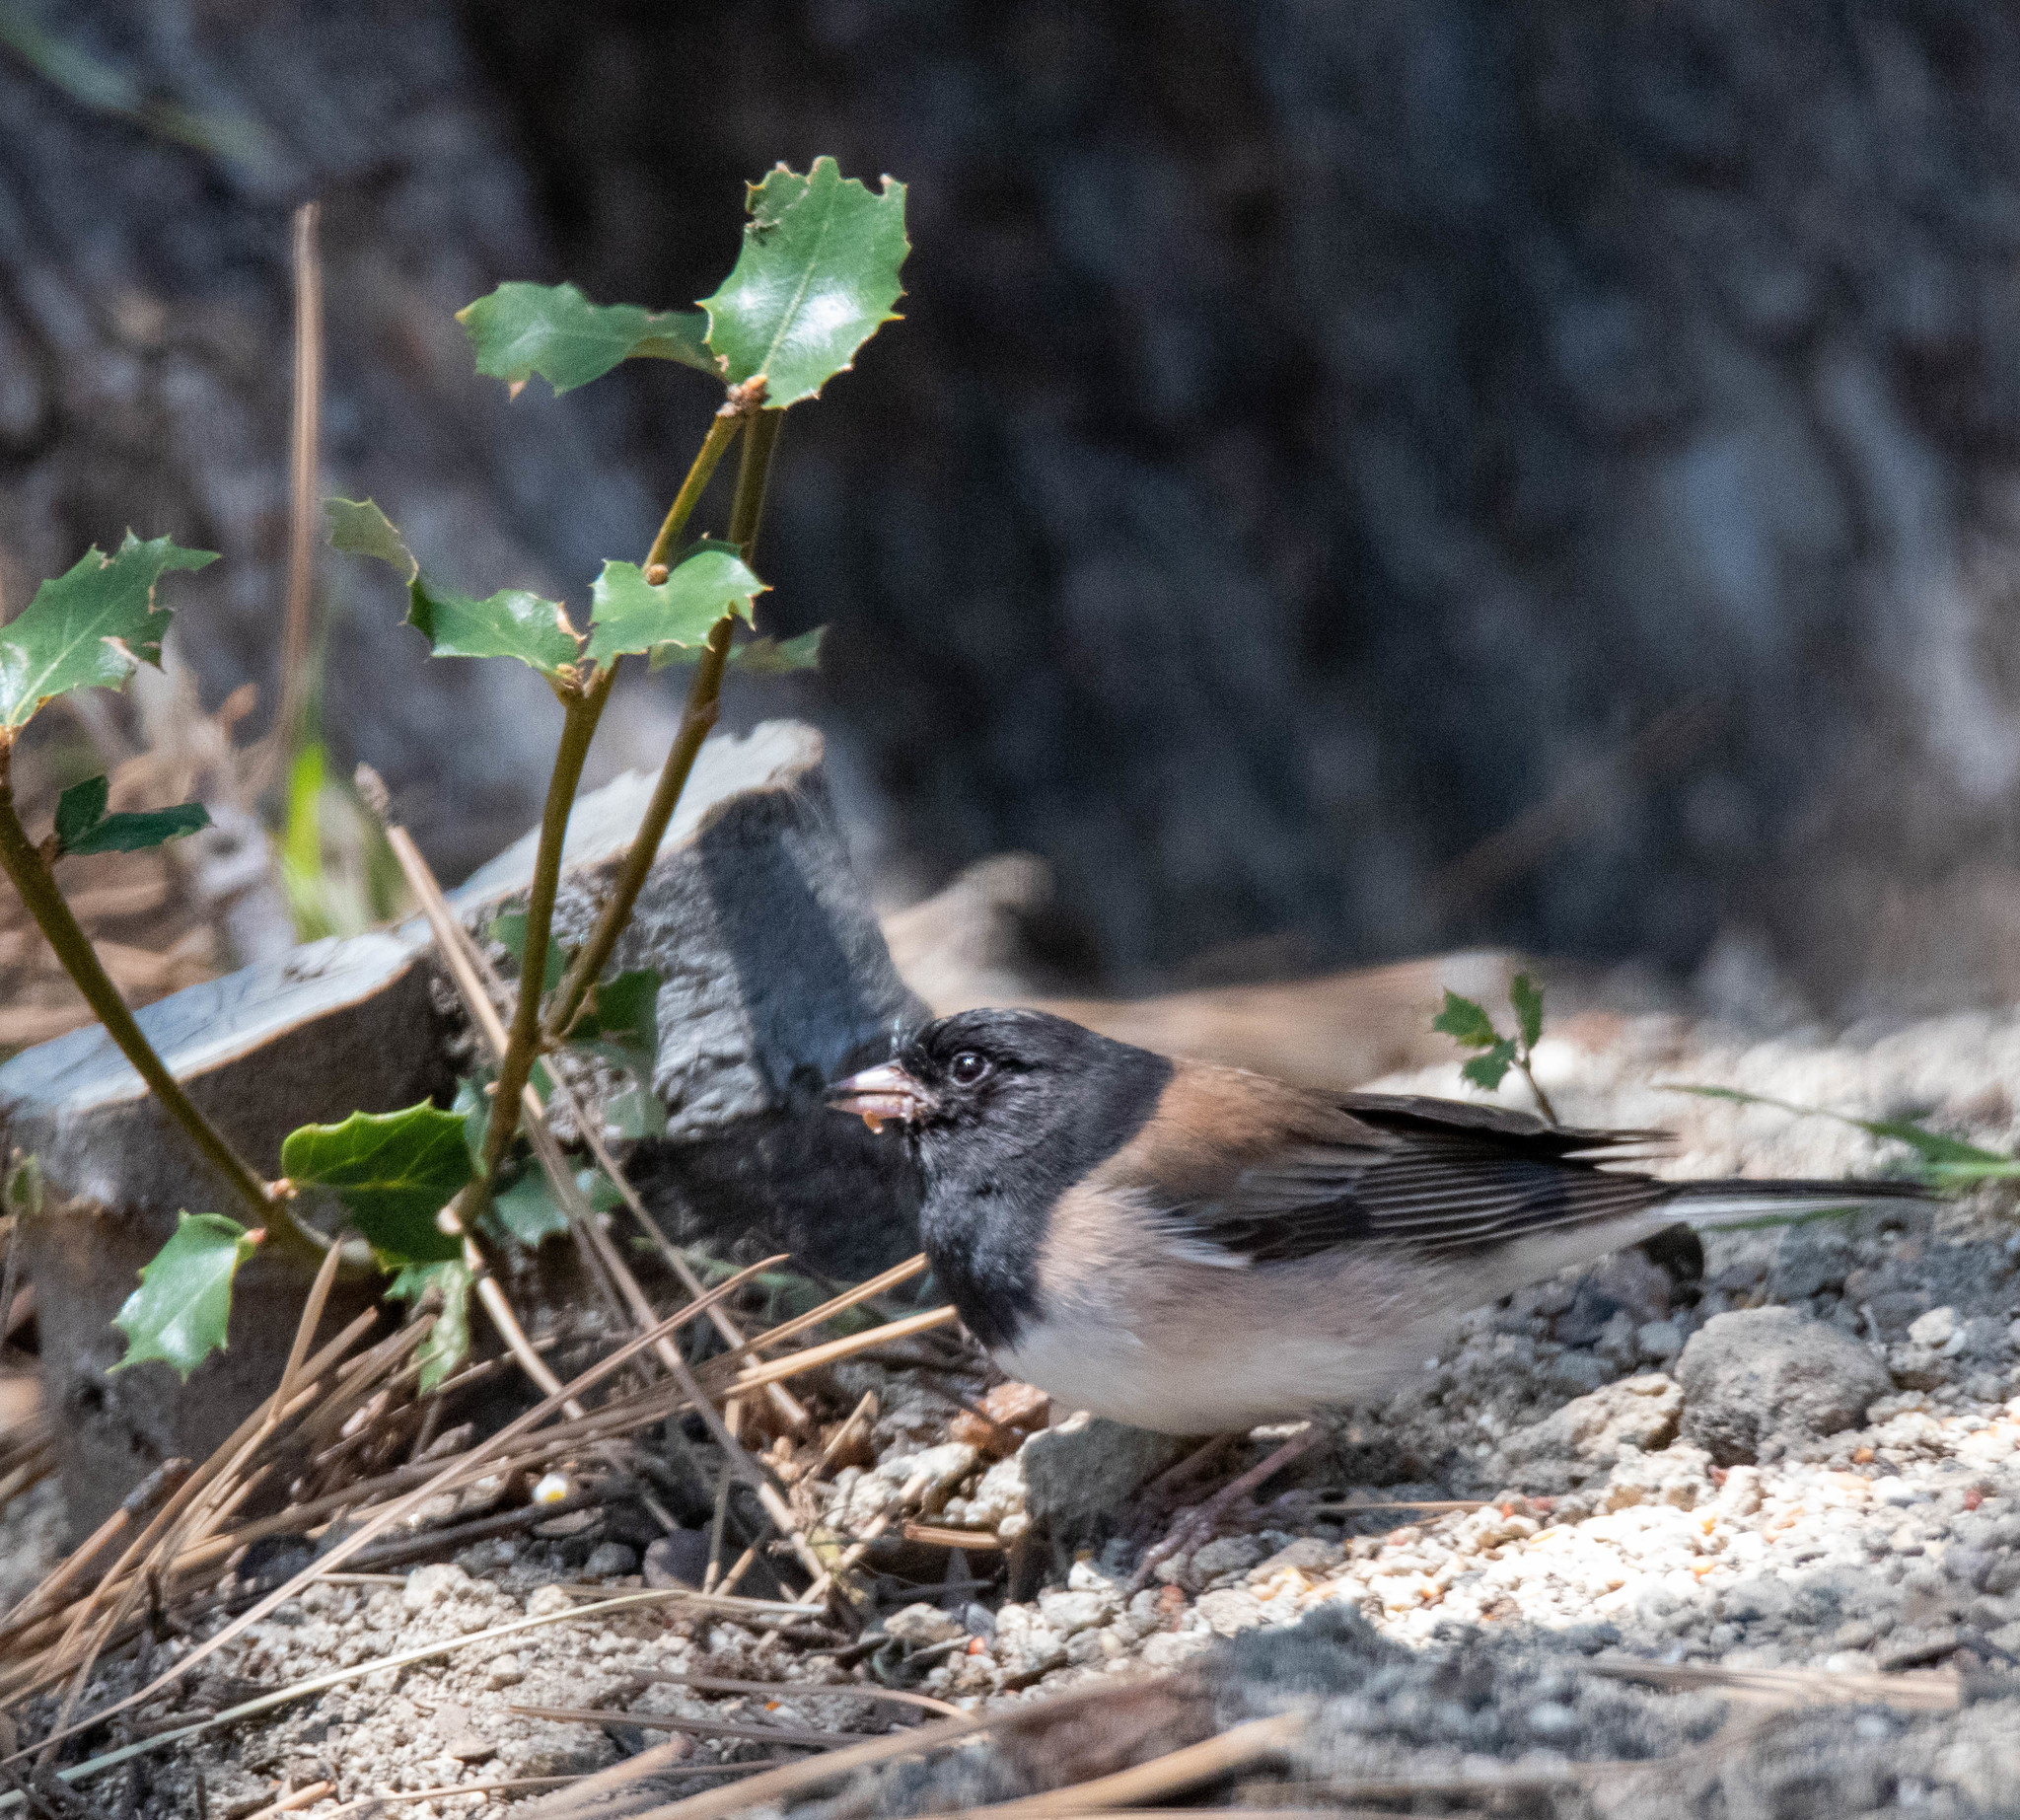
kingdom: Animalia
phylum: Chordata
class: Aves
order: Passeriformes
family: Passerellidae
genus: Junco
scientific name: Junco hyemalis
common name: Dark-eyed junco
